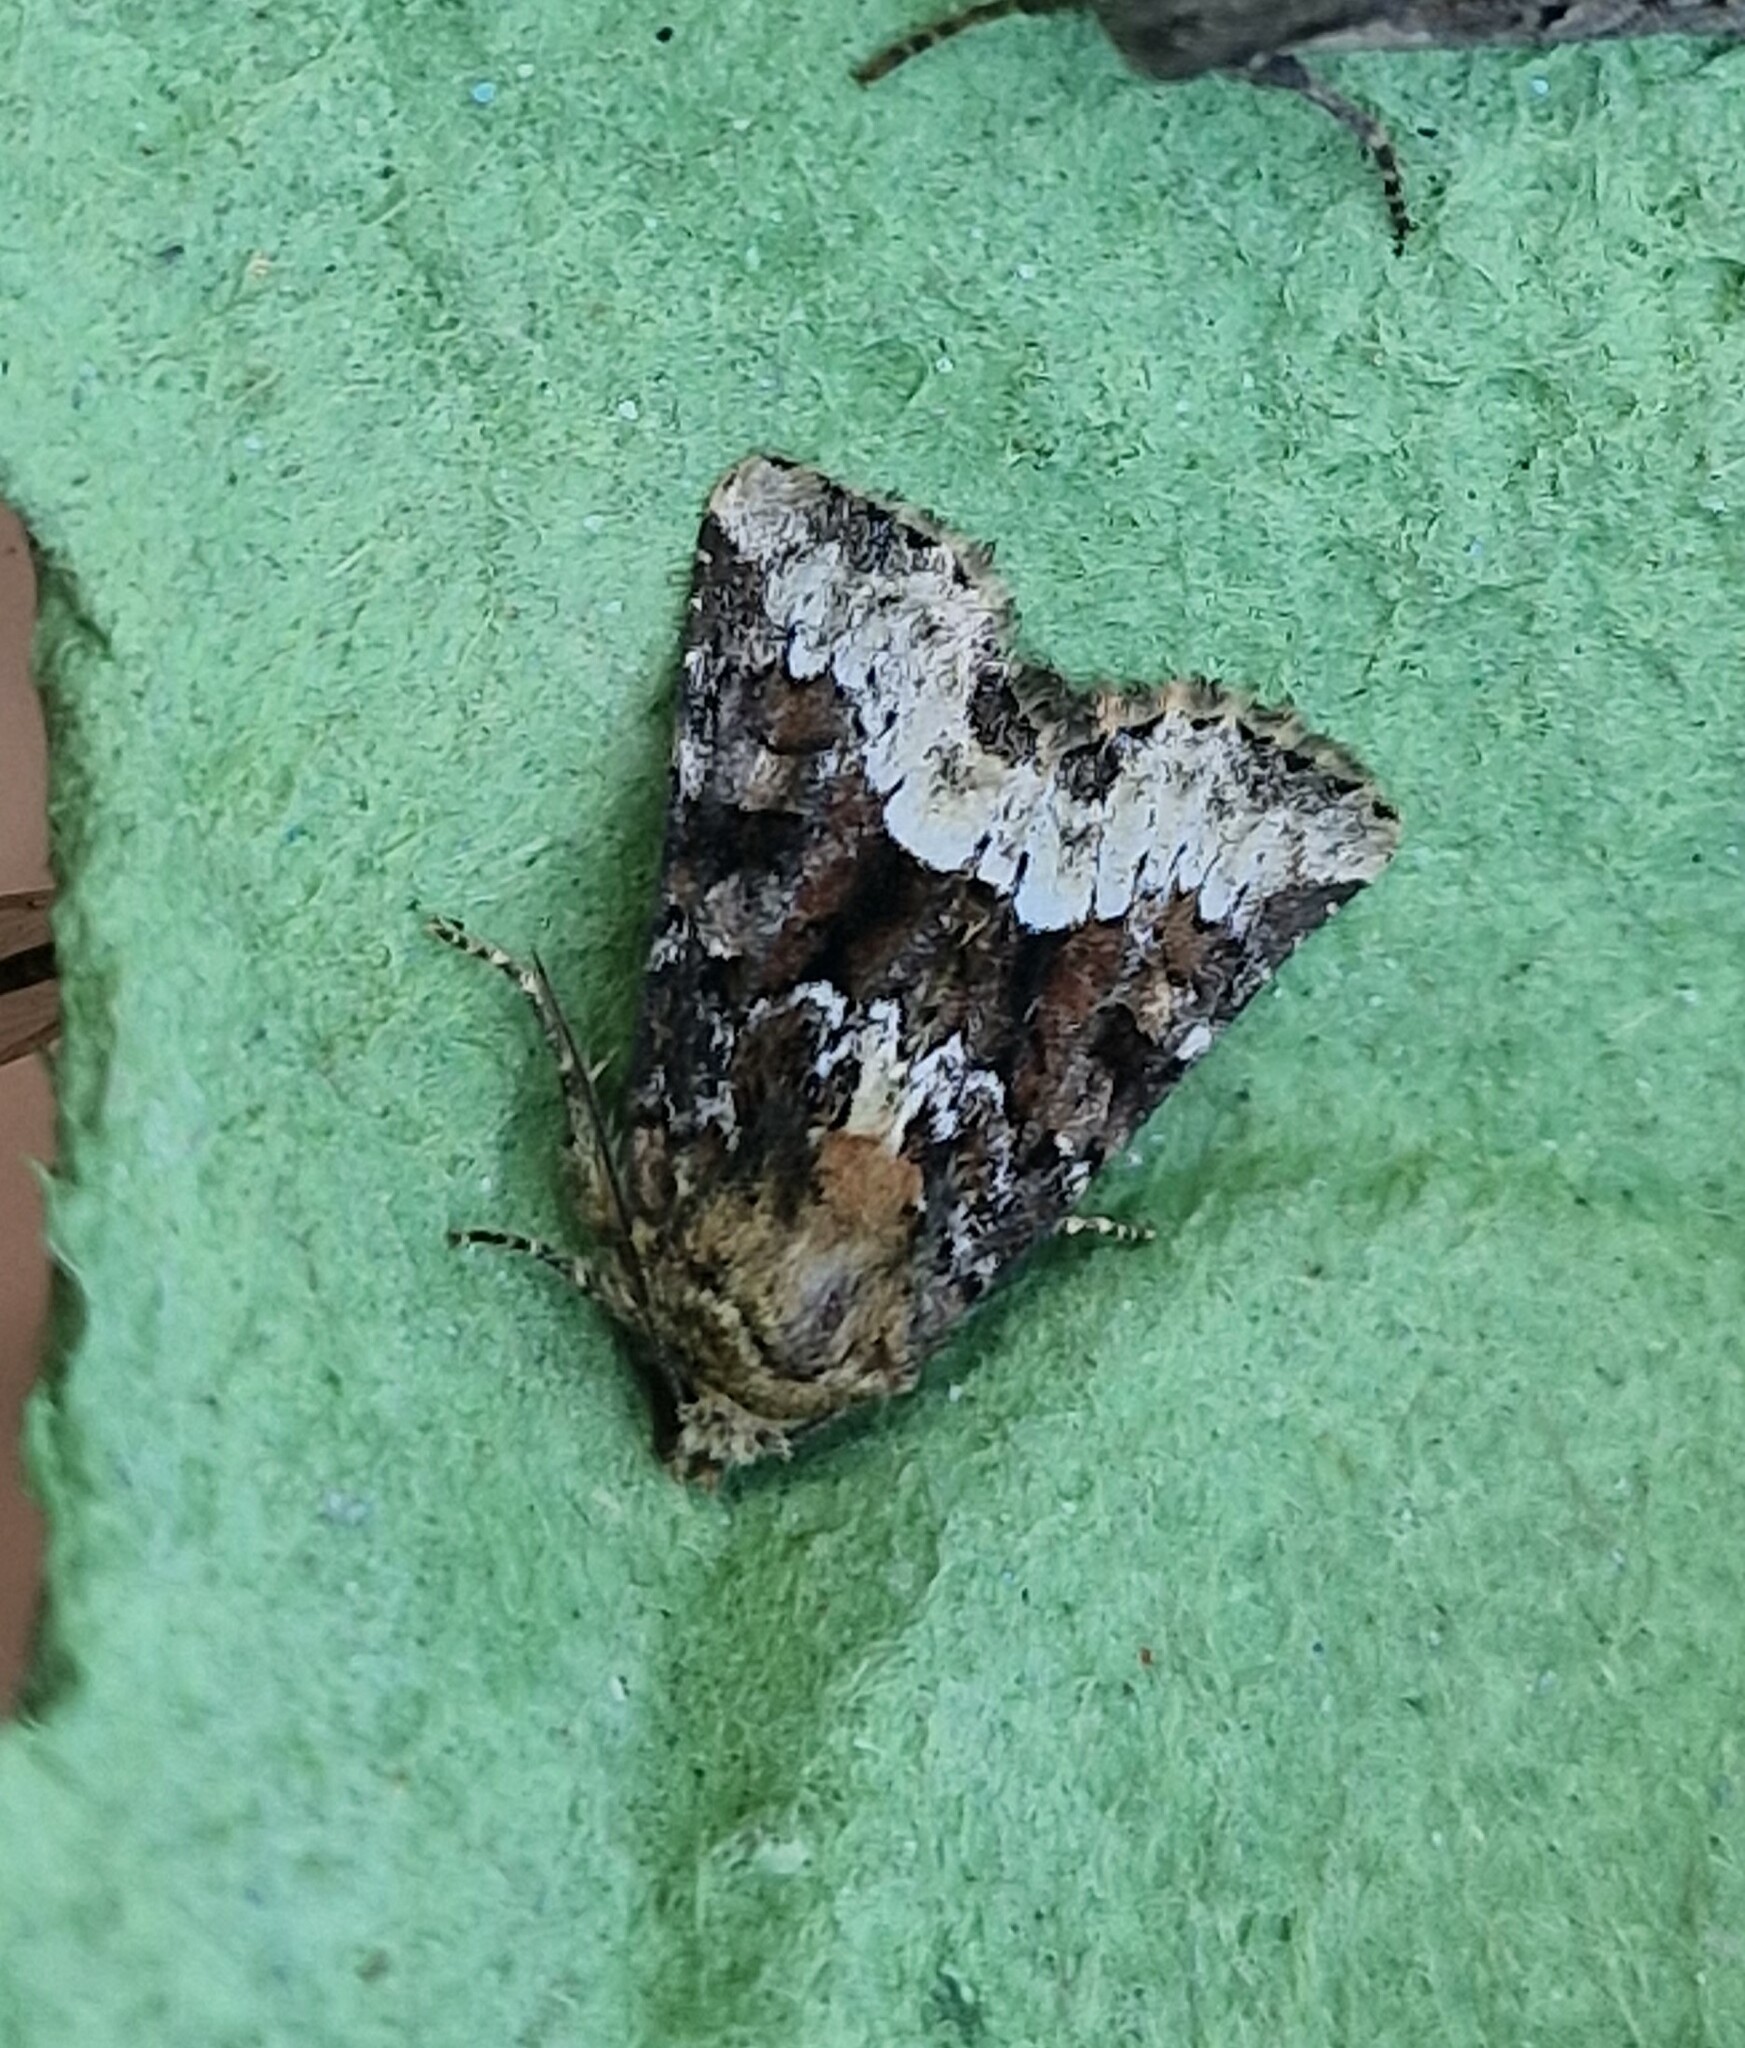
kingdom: Animalia
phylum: Arthropoda
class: Insecta
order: Lepidoptera
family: Noctuidae
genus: Oligia
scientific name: Oligia strigilis
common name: Marbled minor
